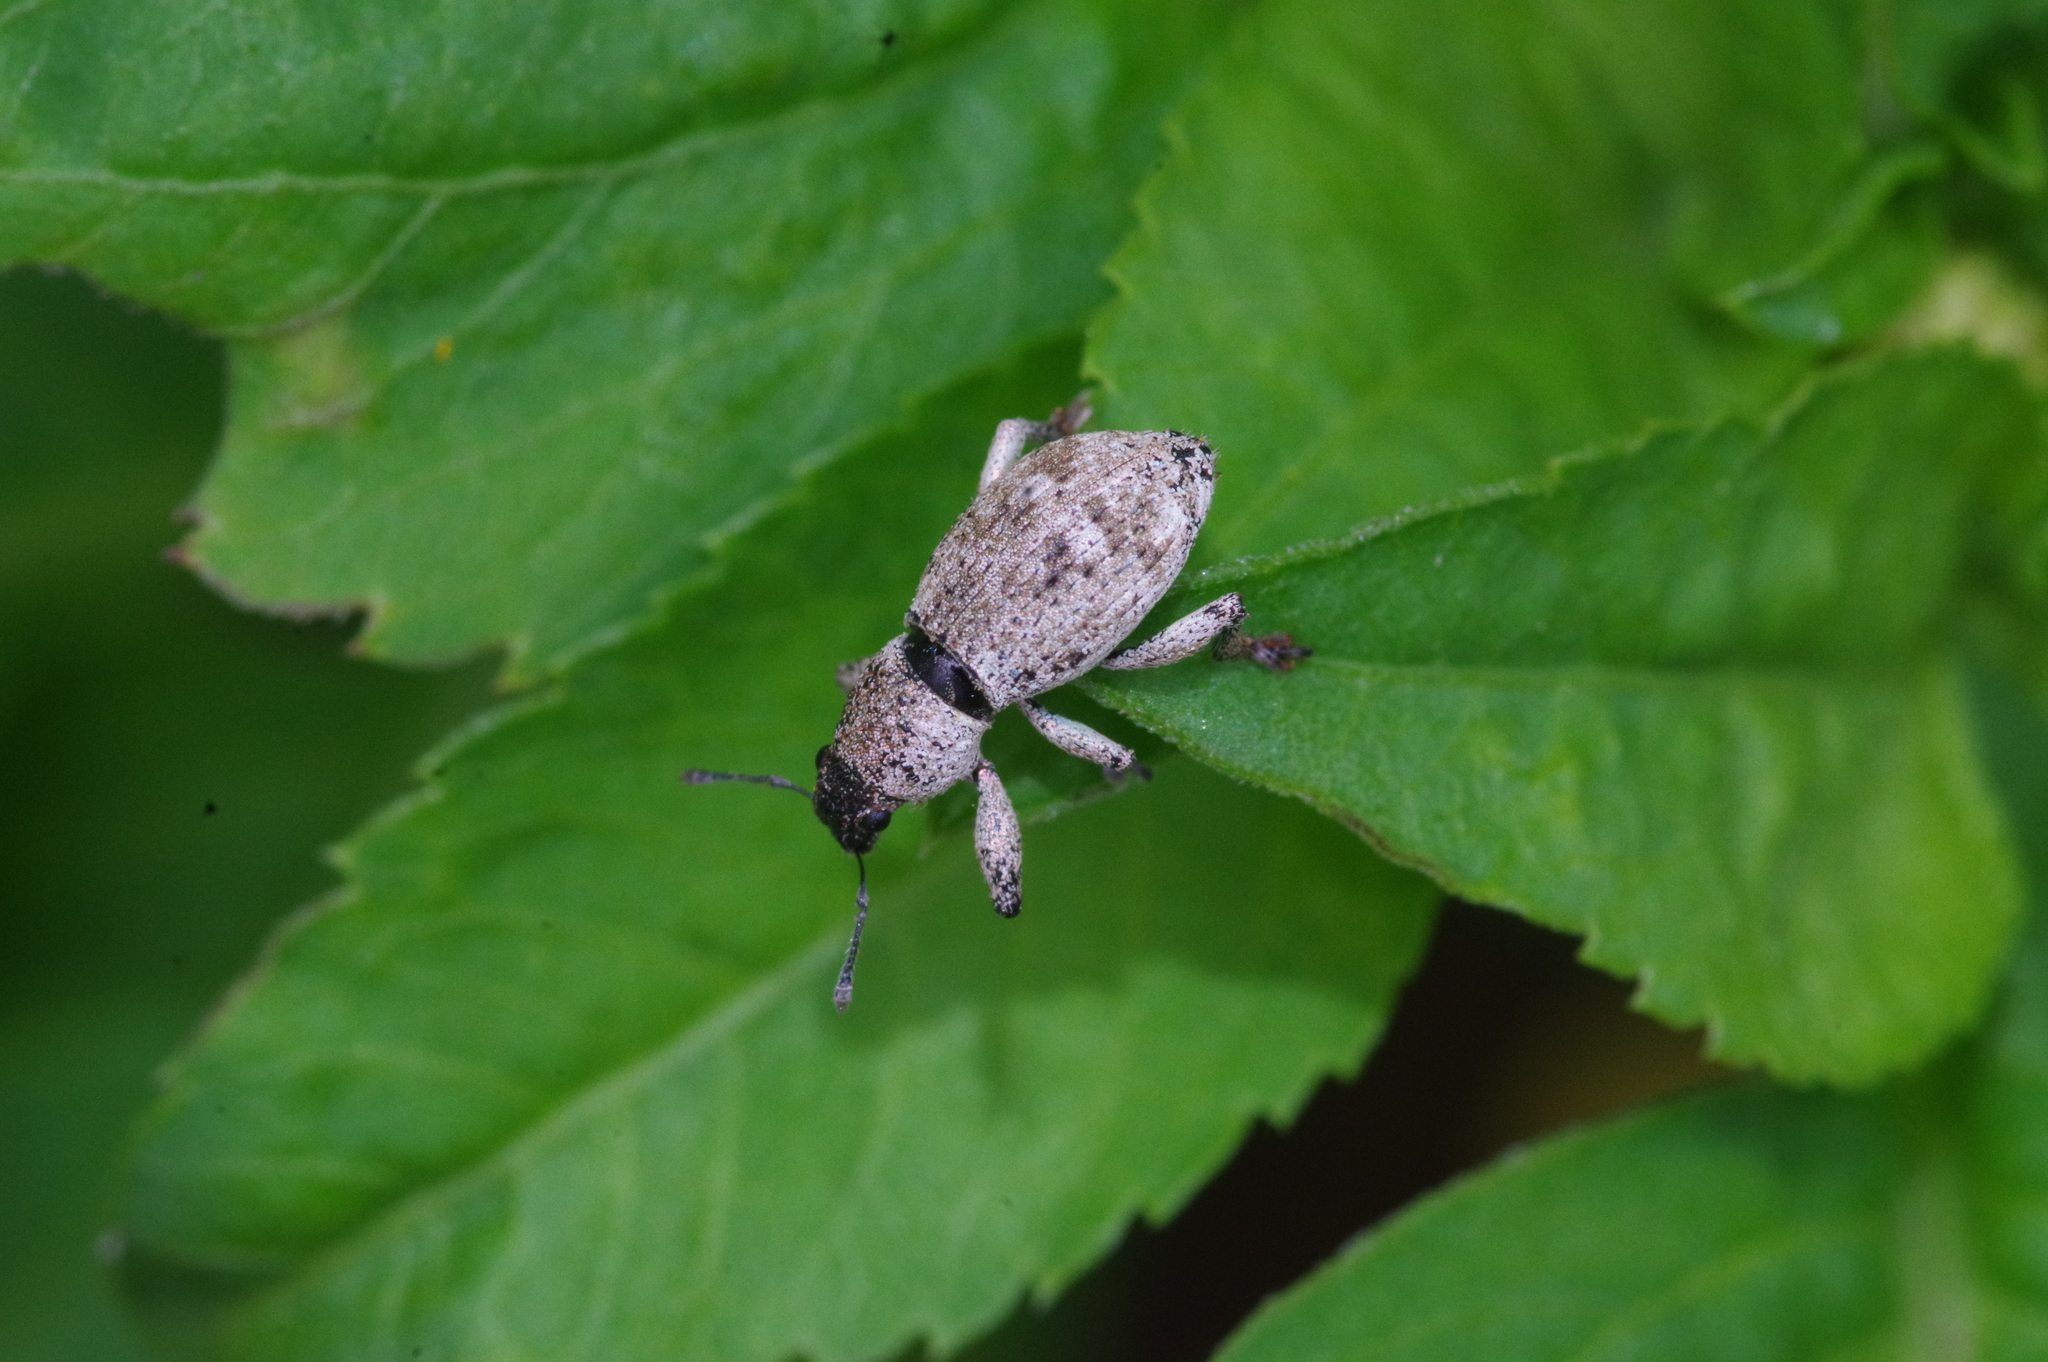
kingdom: Animalia
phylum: Arthropoda
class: Insecta
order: Coleoptera
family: Curculionidae
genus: Eugnathus
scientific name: Eugnathus distinctus
